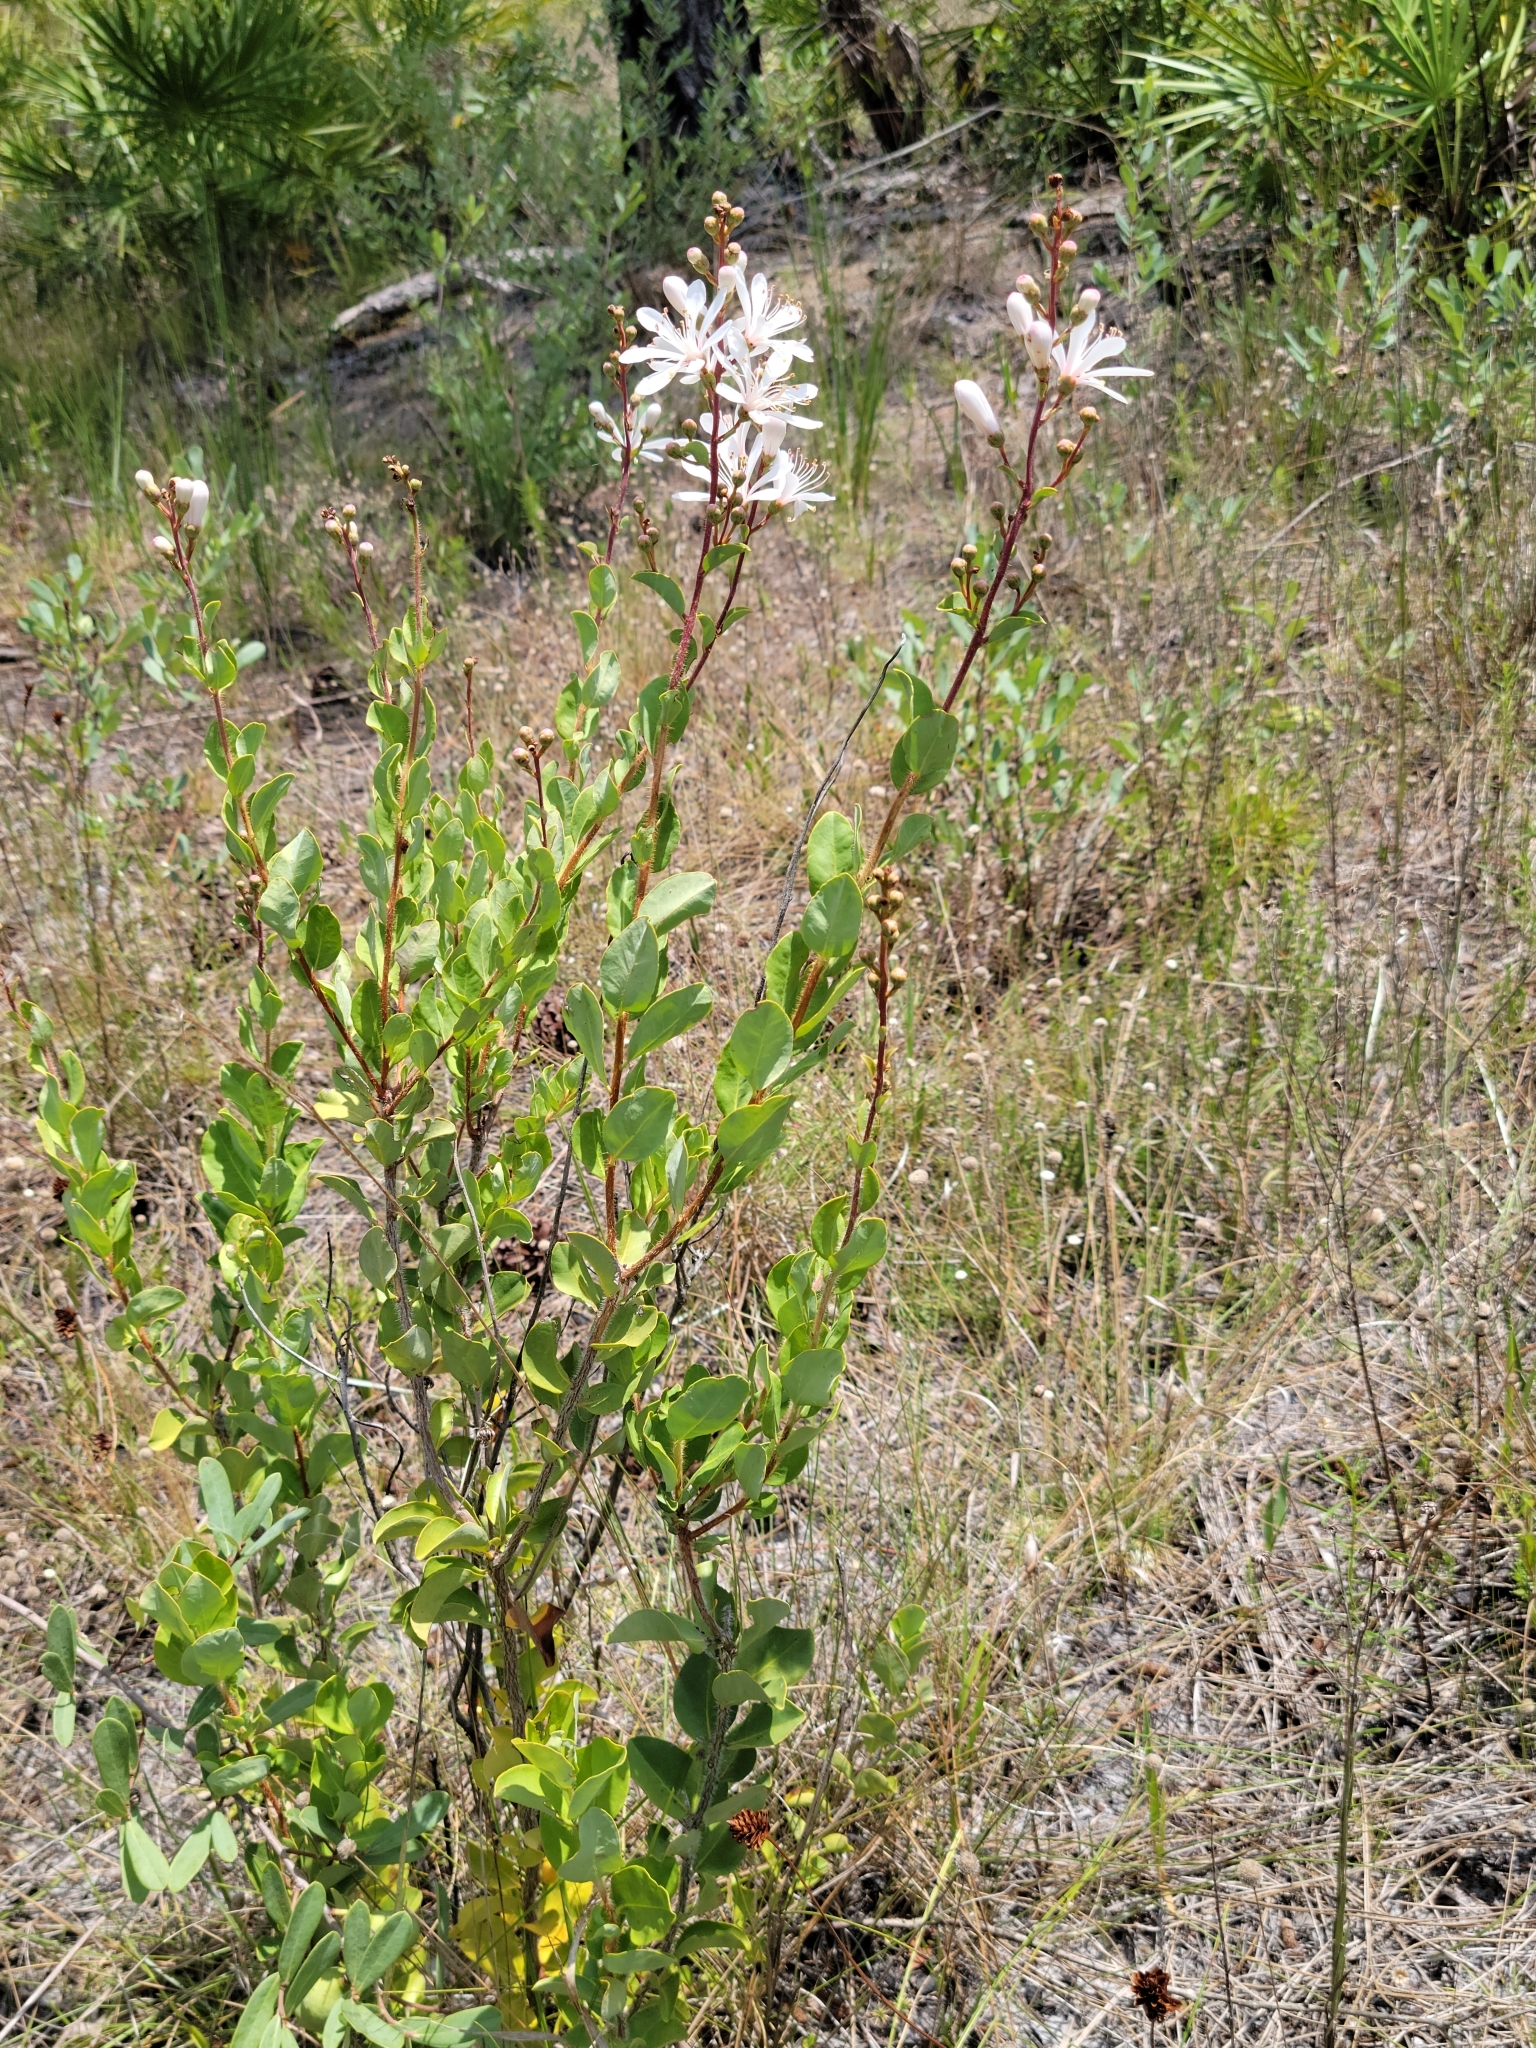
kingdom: Plantae
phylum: Tracheophyta
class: Magnoliopsida
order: Ericales
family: Ericaceae
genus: Bejaria
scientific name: Bejaria racemosa
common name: Tarflower
